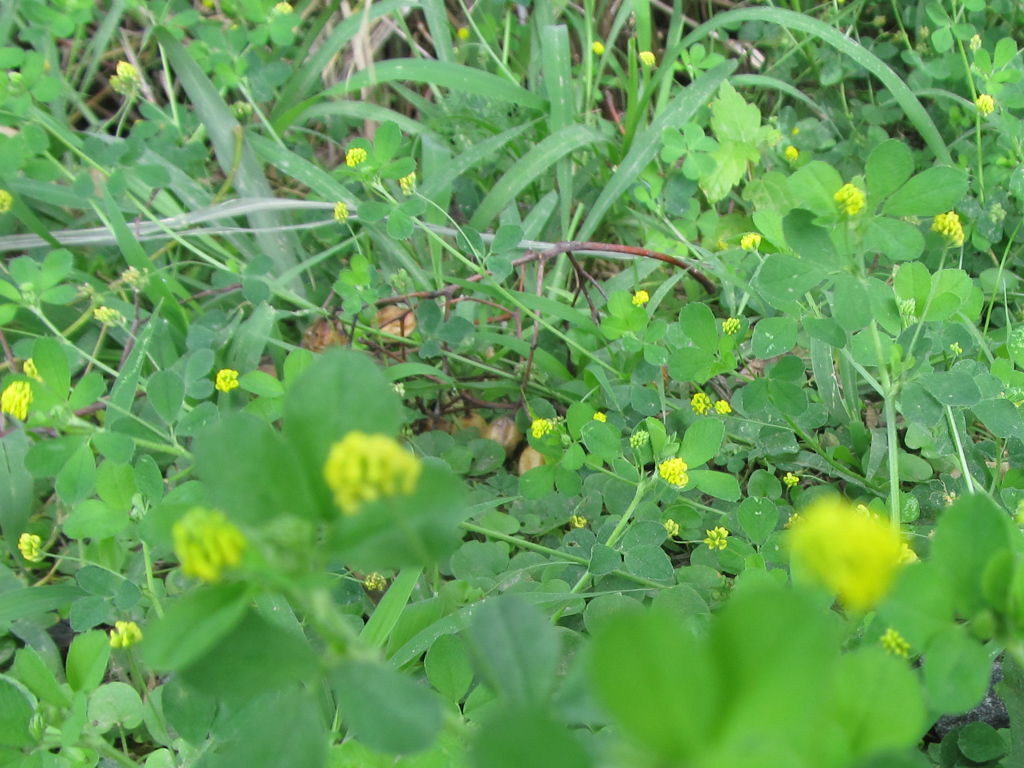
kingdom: Plantae
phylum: Tracheophyta
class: Magnoliopsida
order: Fabales
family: Fabaceae
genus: Medicago
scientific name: Medicago lupulina
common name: Black medick
